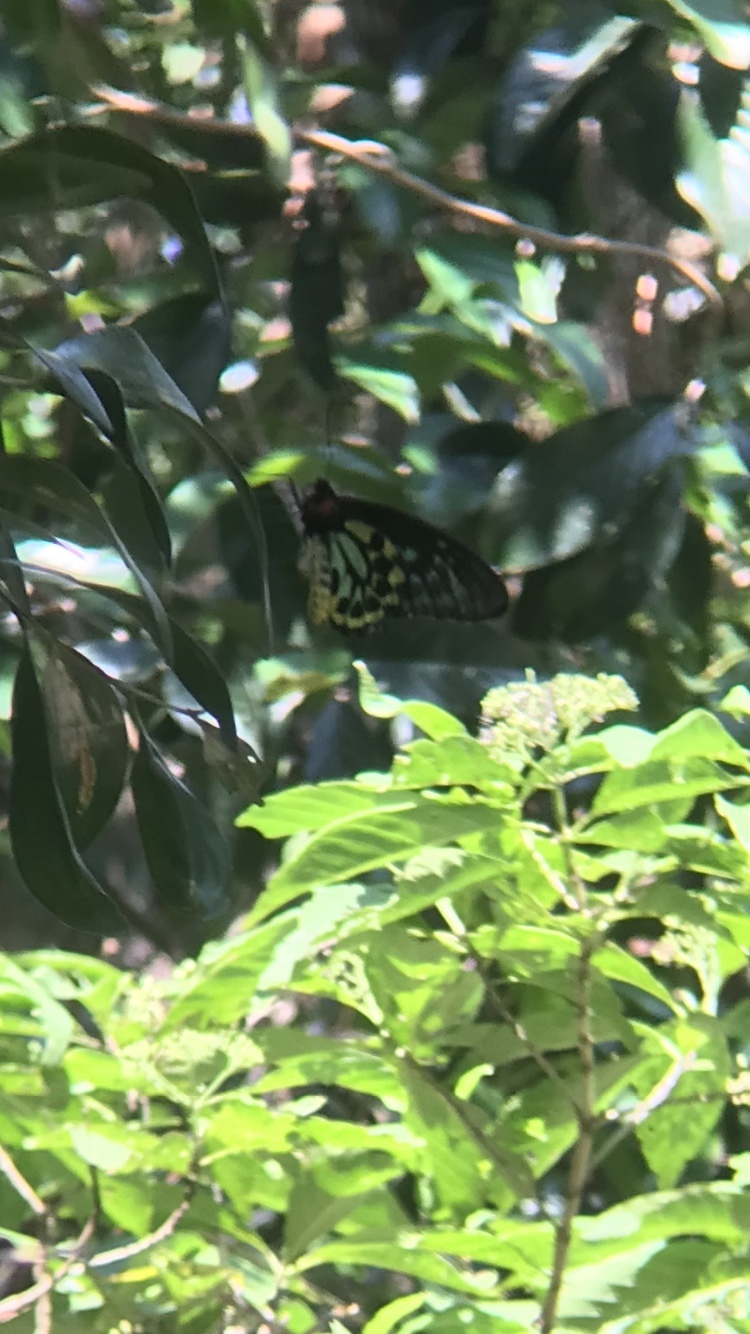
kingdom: Animalia
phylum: Arthropoda
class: Insecta
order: Lepidoptera
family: Papilionidae
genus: Ornithoptera
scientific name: Ornithoptera euphorion
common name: Cairns birdwing
